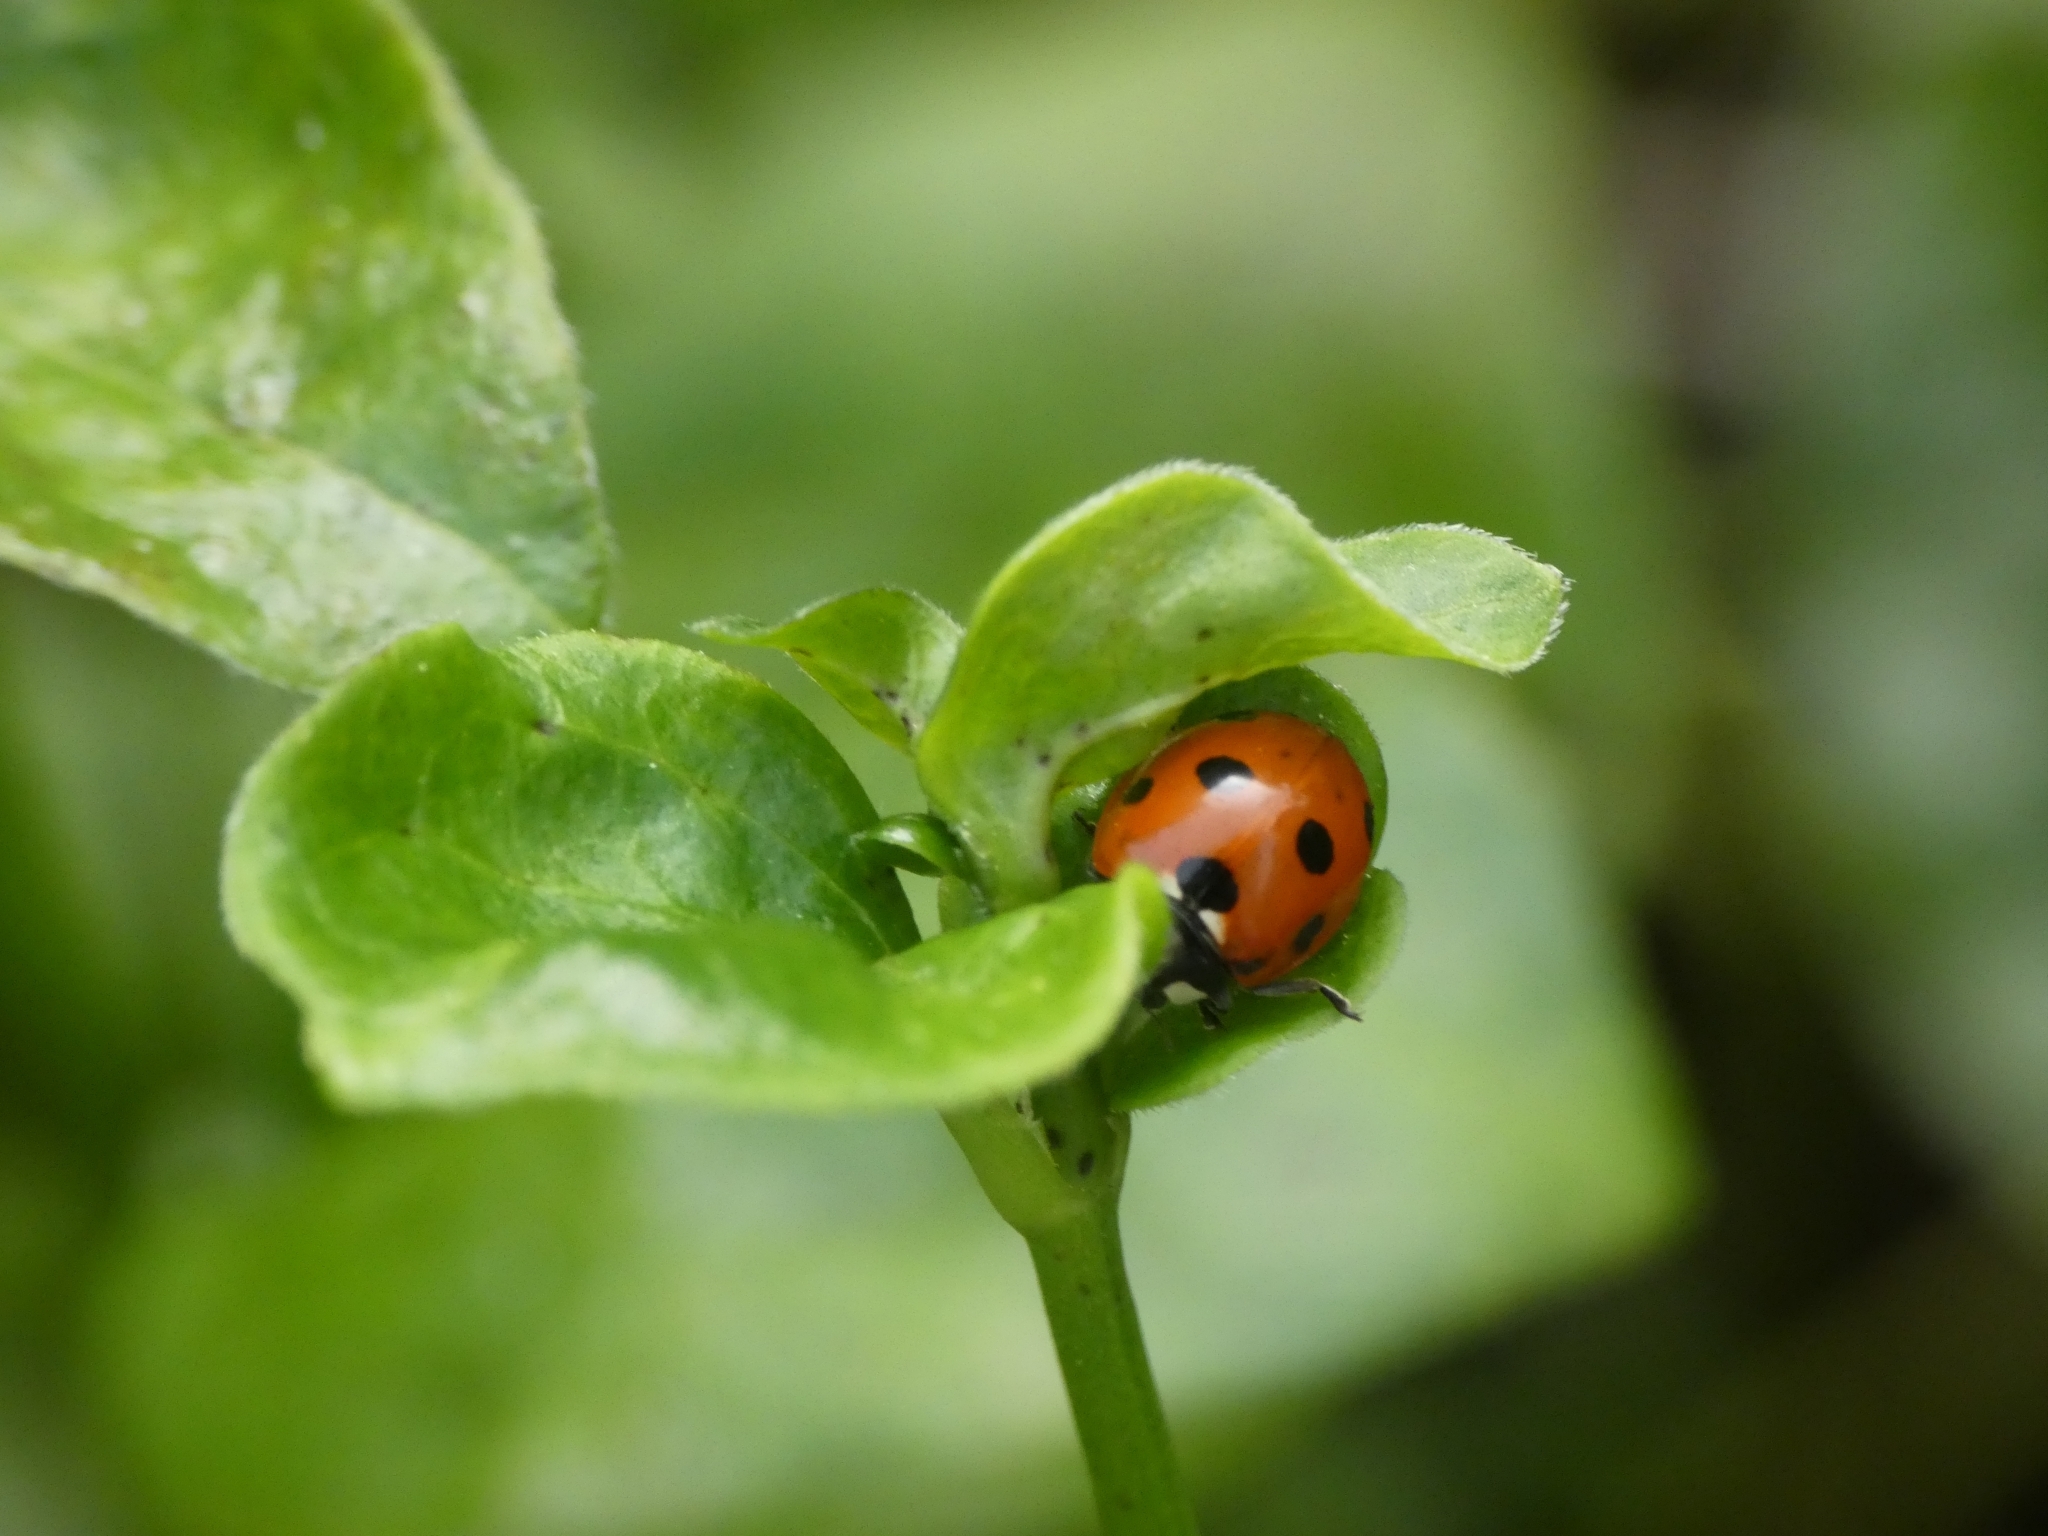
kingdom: Animalia
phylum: Arthropoda
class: Insecta
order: Coleoptera
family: Coccinellidae
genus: Coccinella
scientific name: Coccinella septempunctata
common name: Sevenspotted lady beetle
